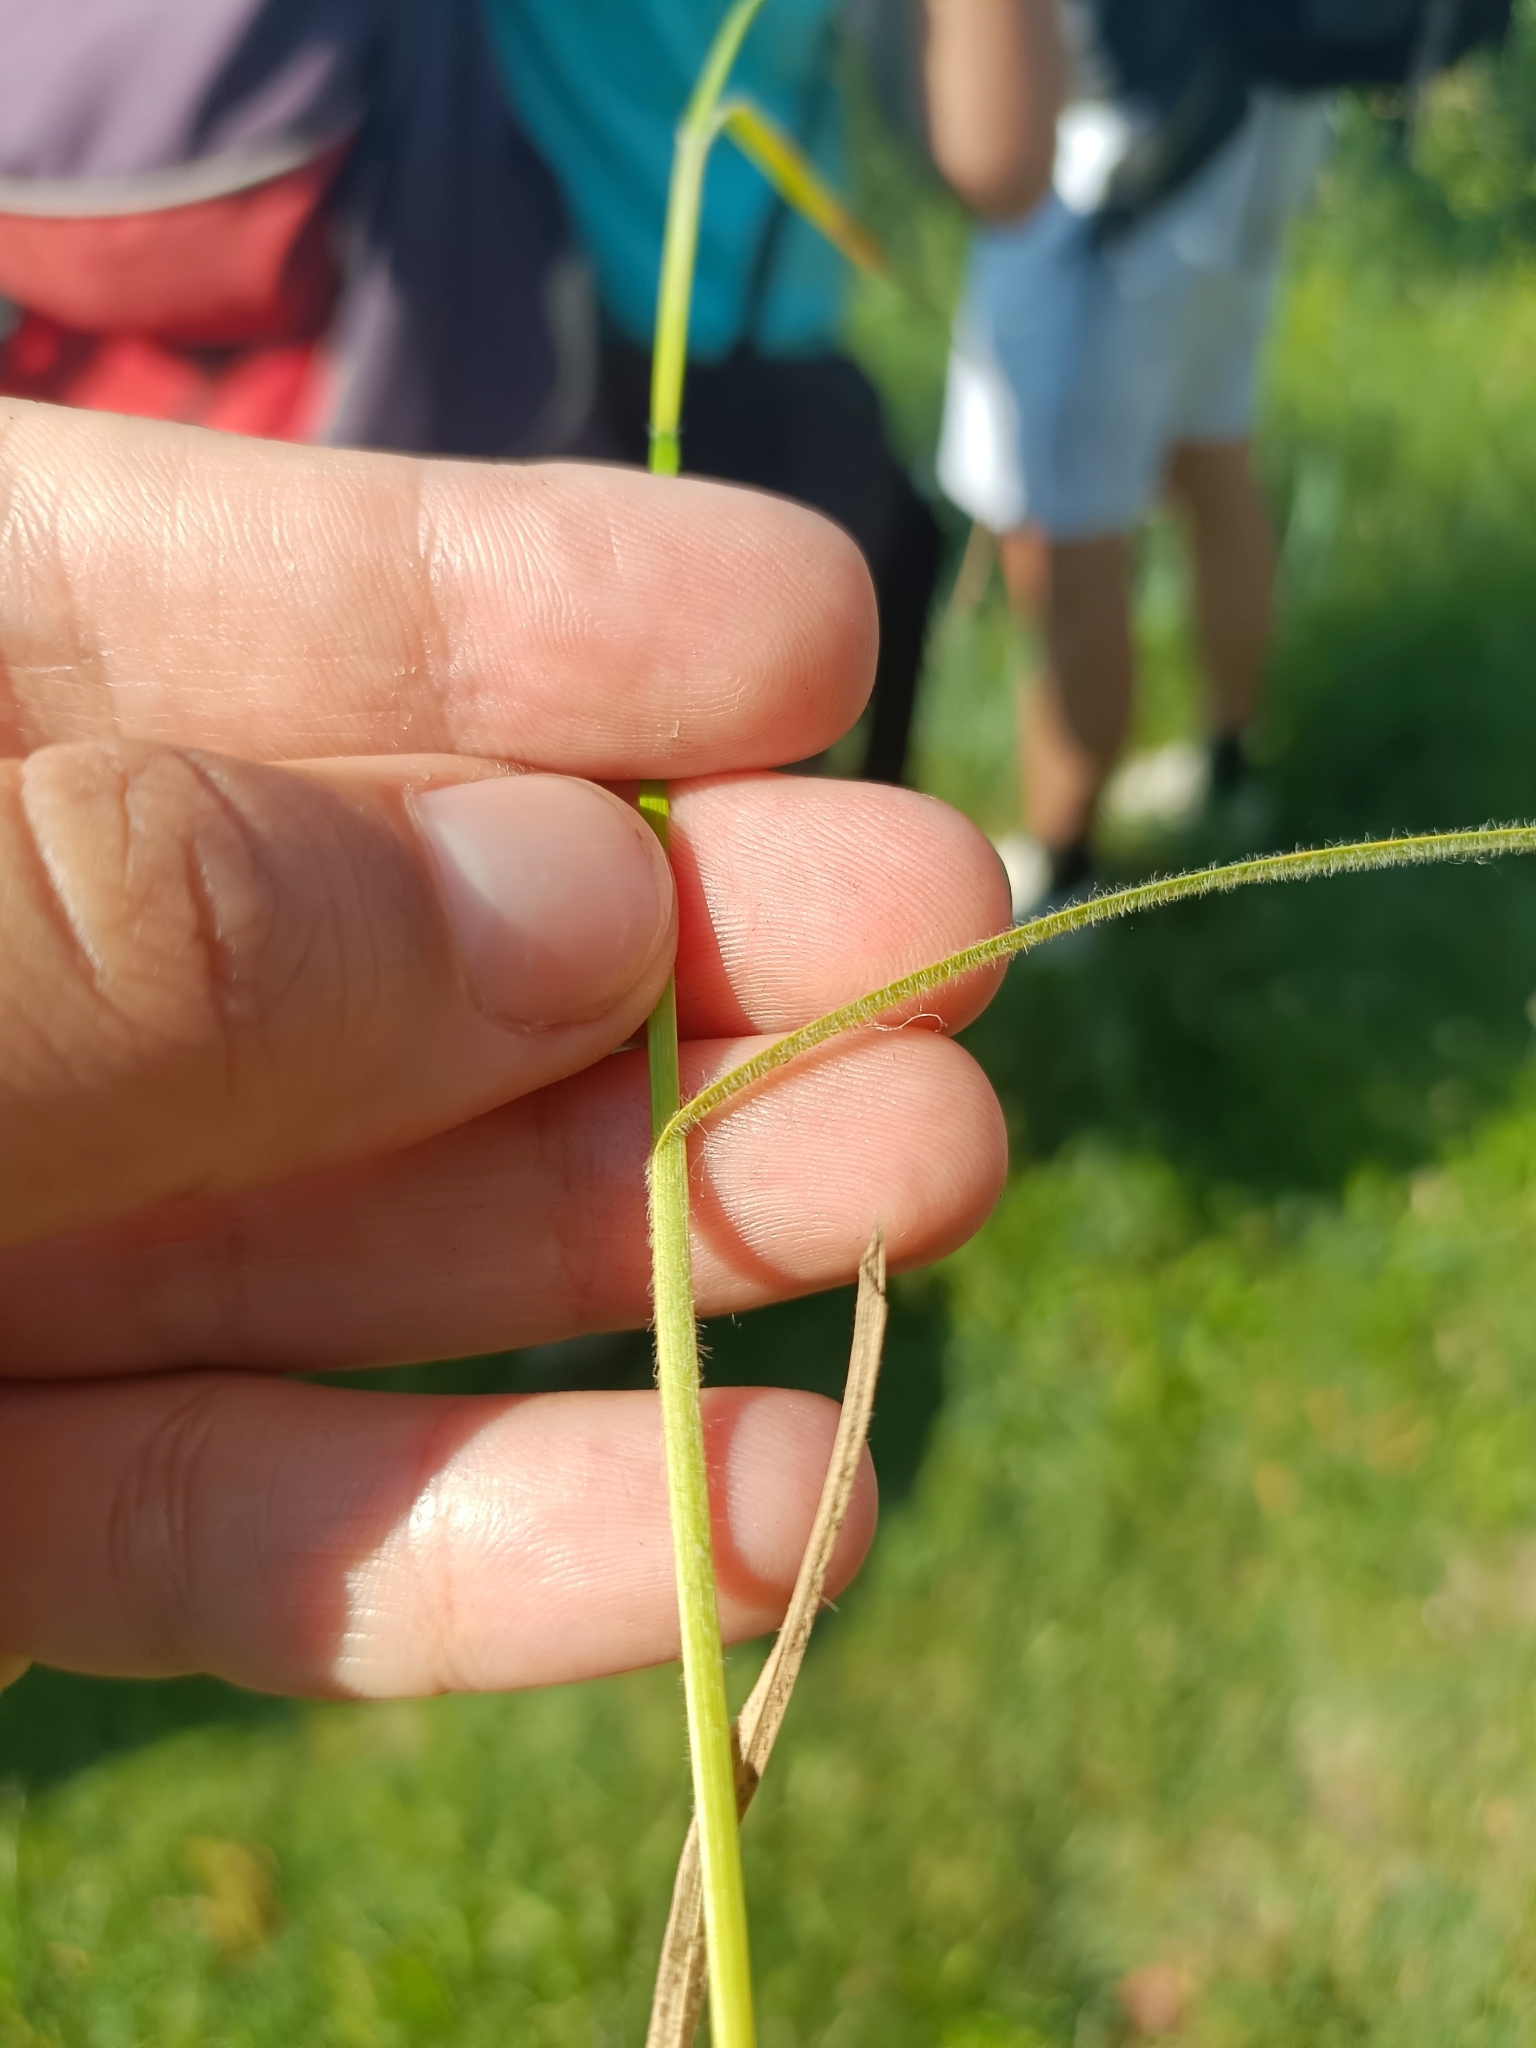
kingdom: Plantae
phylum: Tracheophyta
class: Liliopsida
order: Poales
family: Cyperaceae
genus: Carex
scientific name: Carex hirta
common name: Hairy sedge
